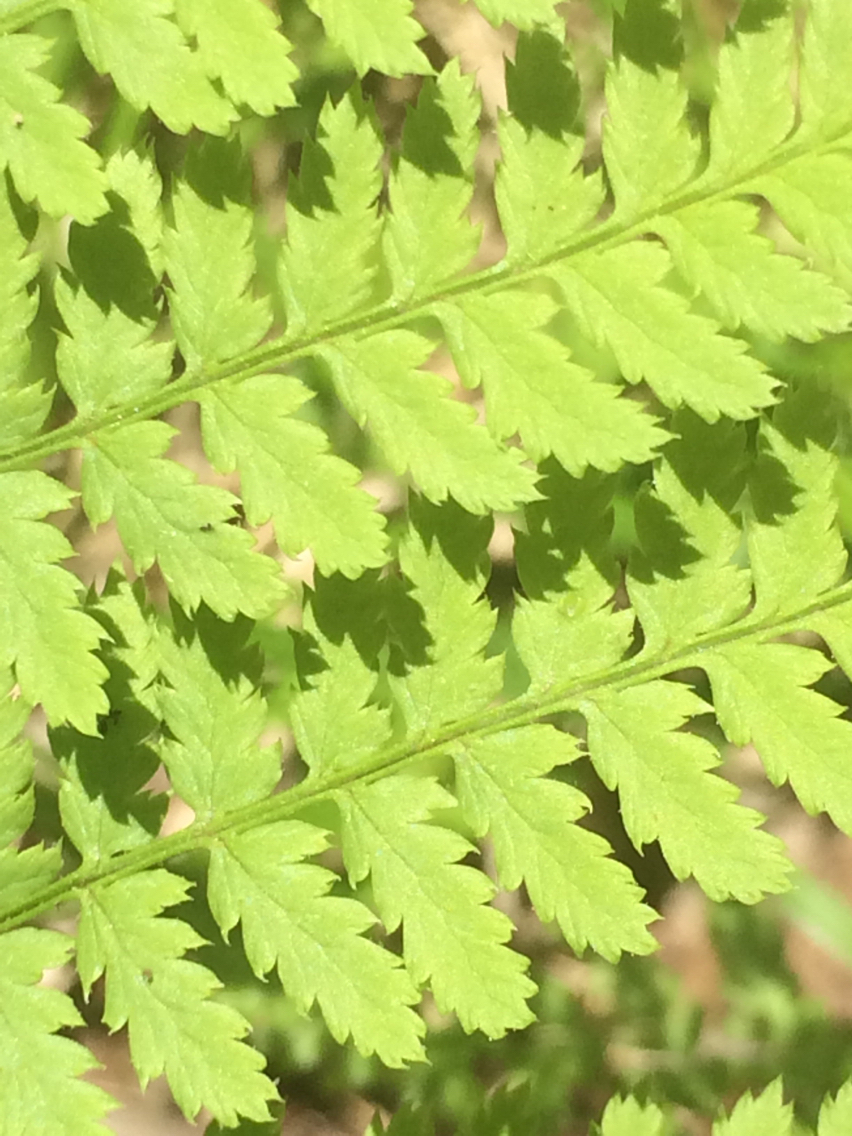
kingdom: Plantae
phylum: Tracheophyta
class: Polypodiopsida
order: Polypodiales
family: Dryopteridaceae
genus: Dryopteris
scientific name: Dryopteris carthusiana
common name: Narrow buckler-fern
